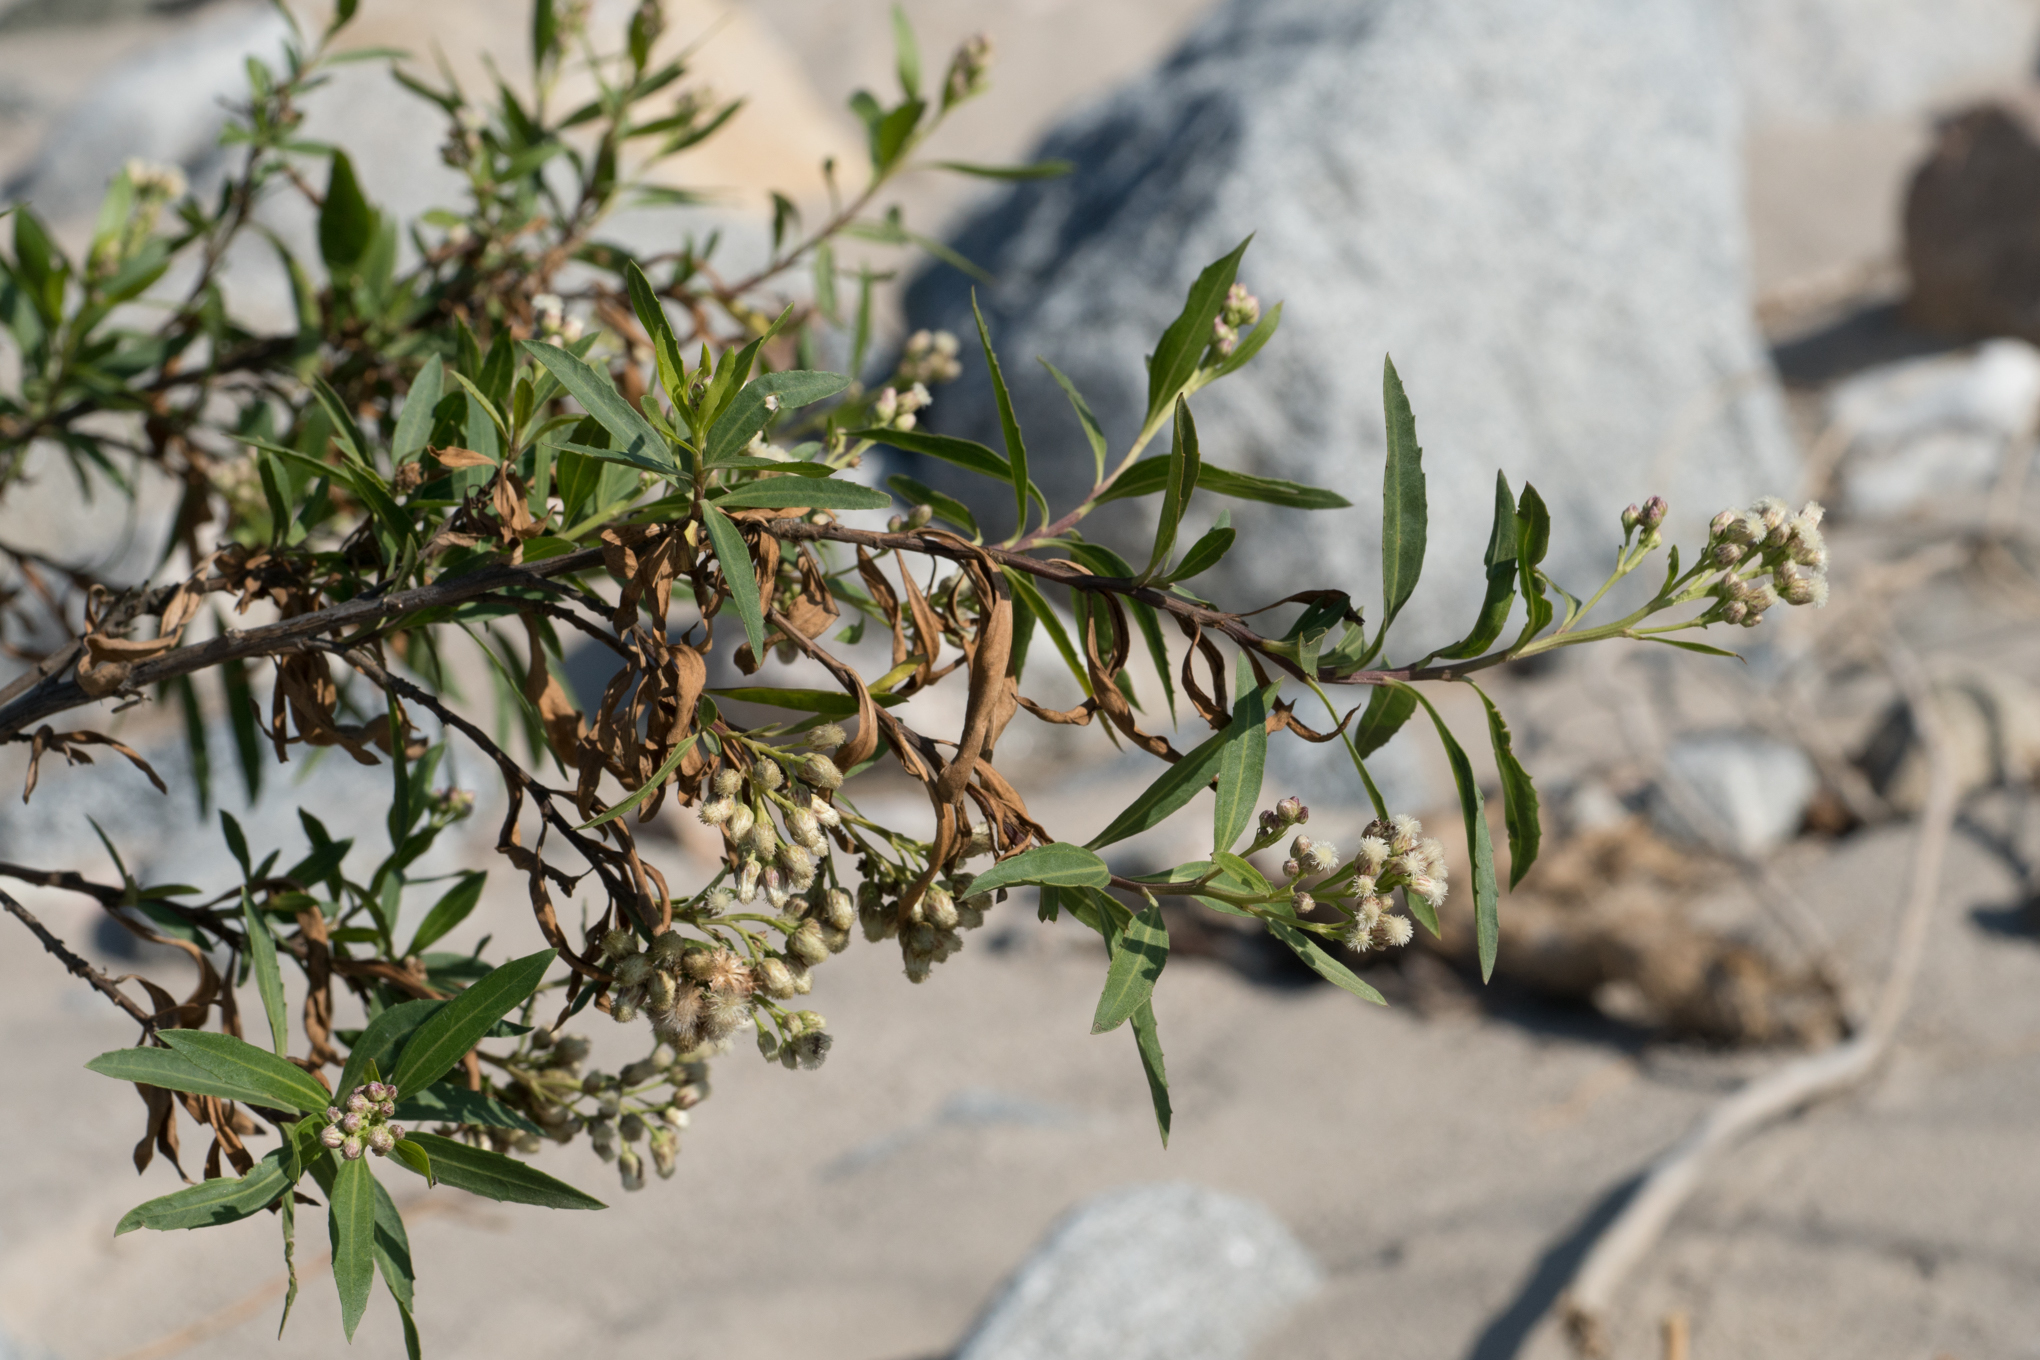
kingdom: Plantae
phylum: Tracheophyta
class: Magnoliopsida
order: Asterales
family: Asteraceae
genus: Baccharis
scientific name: Baccharis salicifolia
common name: Sticky baccharis
